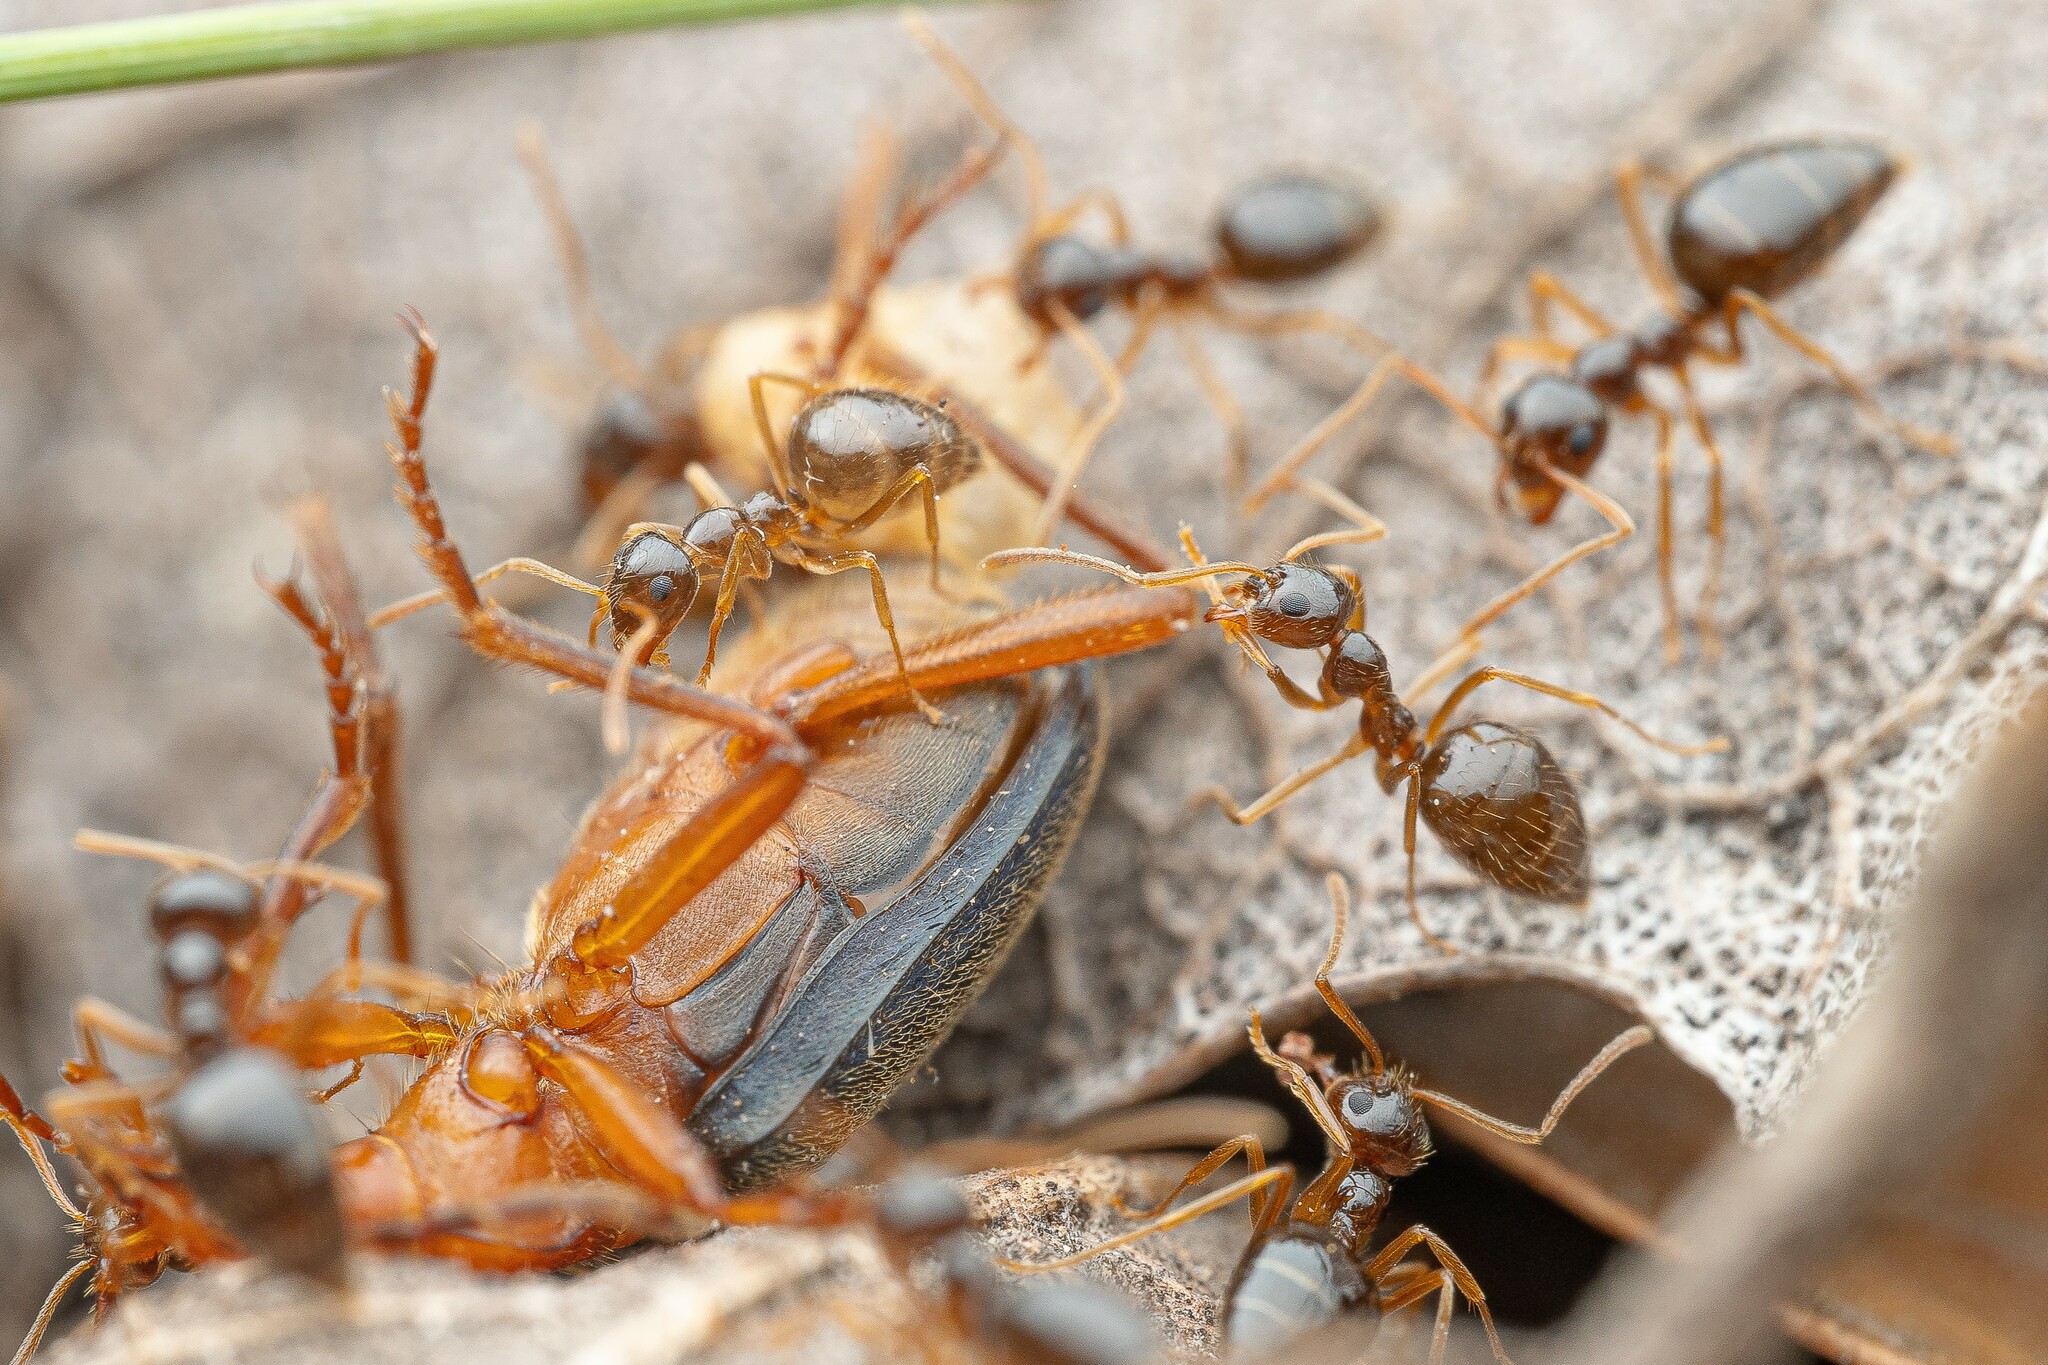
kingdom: Animalia
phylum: Arthropoda
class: Insecta
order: Hymenoptera
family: Formicidae
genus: Prenolepis
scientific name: Prenolepis imparis
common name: Small honey ant
